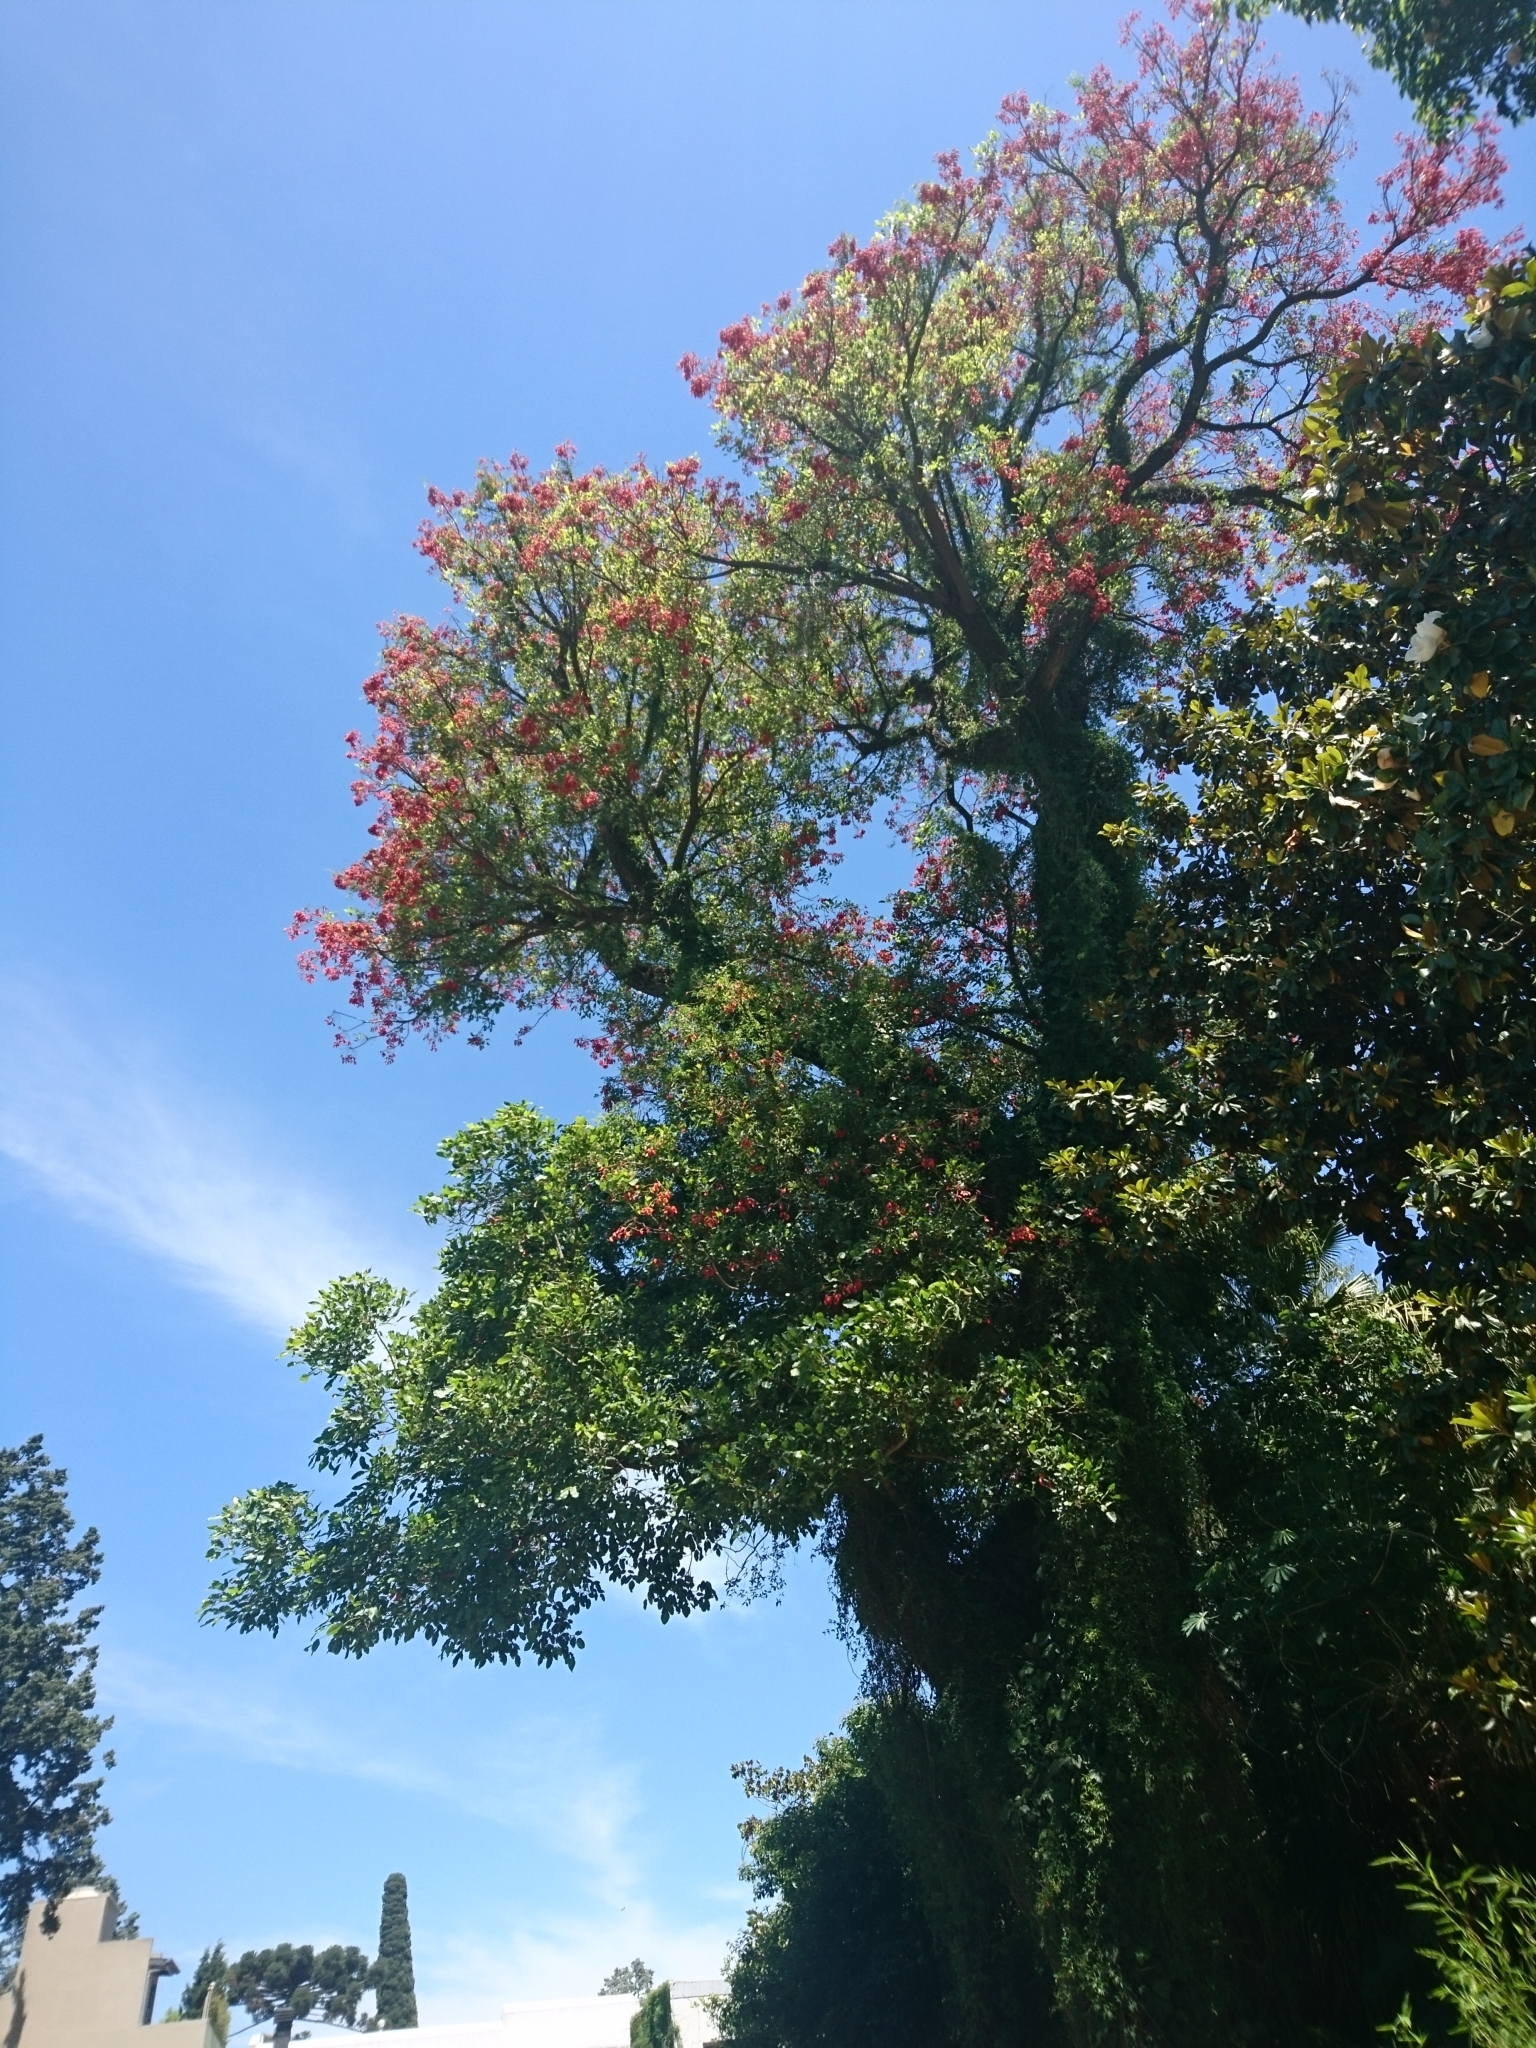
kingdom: Plantae
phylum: Tracheophyta
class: Magnoliopsida
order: Fabales
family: Fabaceae
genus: Erythrina
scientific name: Erythrina crista-galli
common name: Cockspur coral tree
